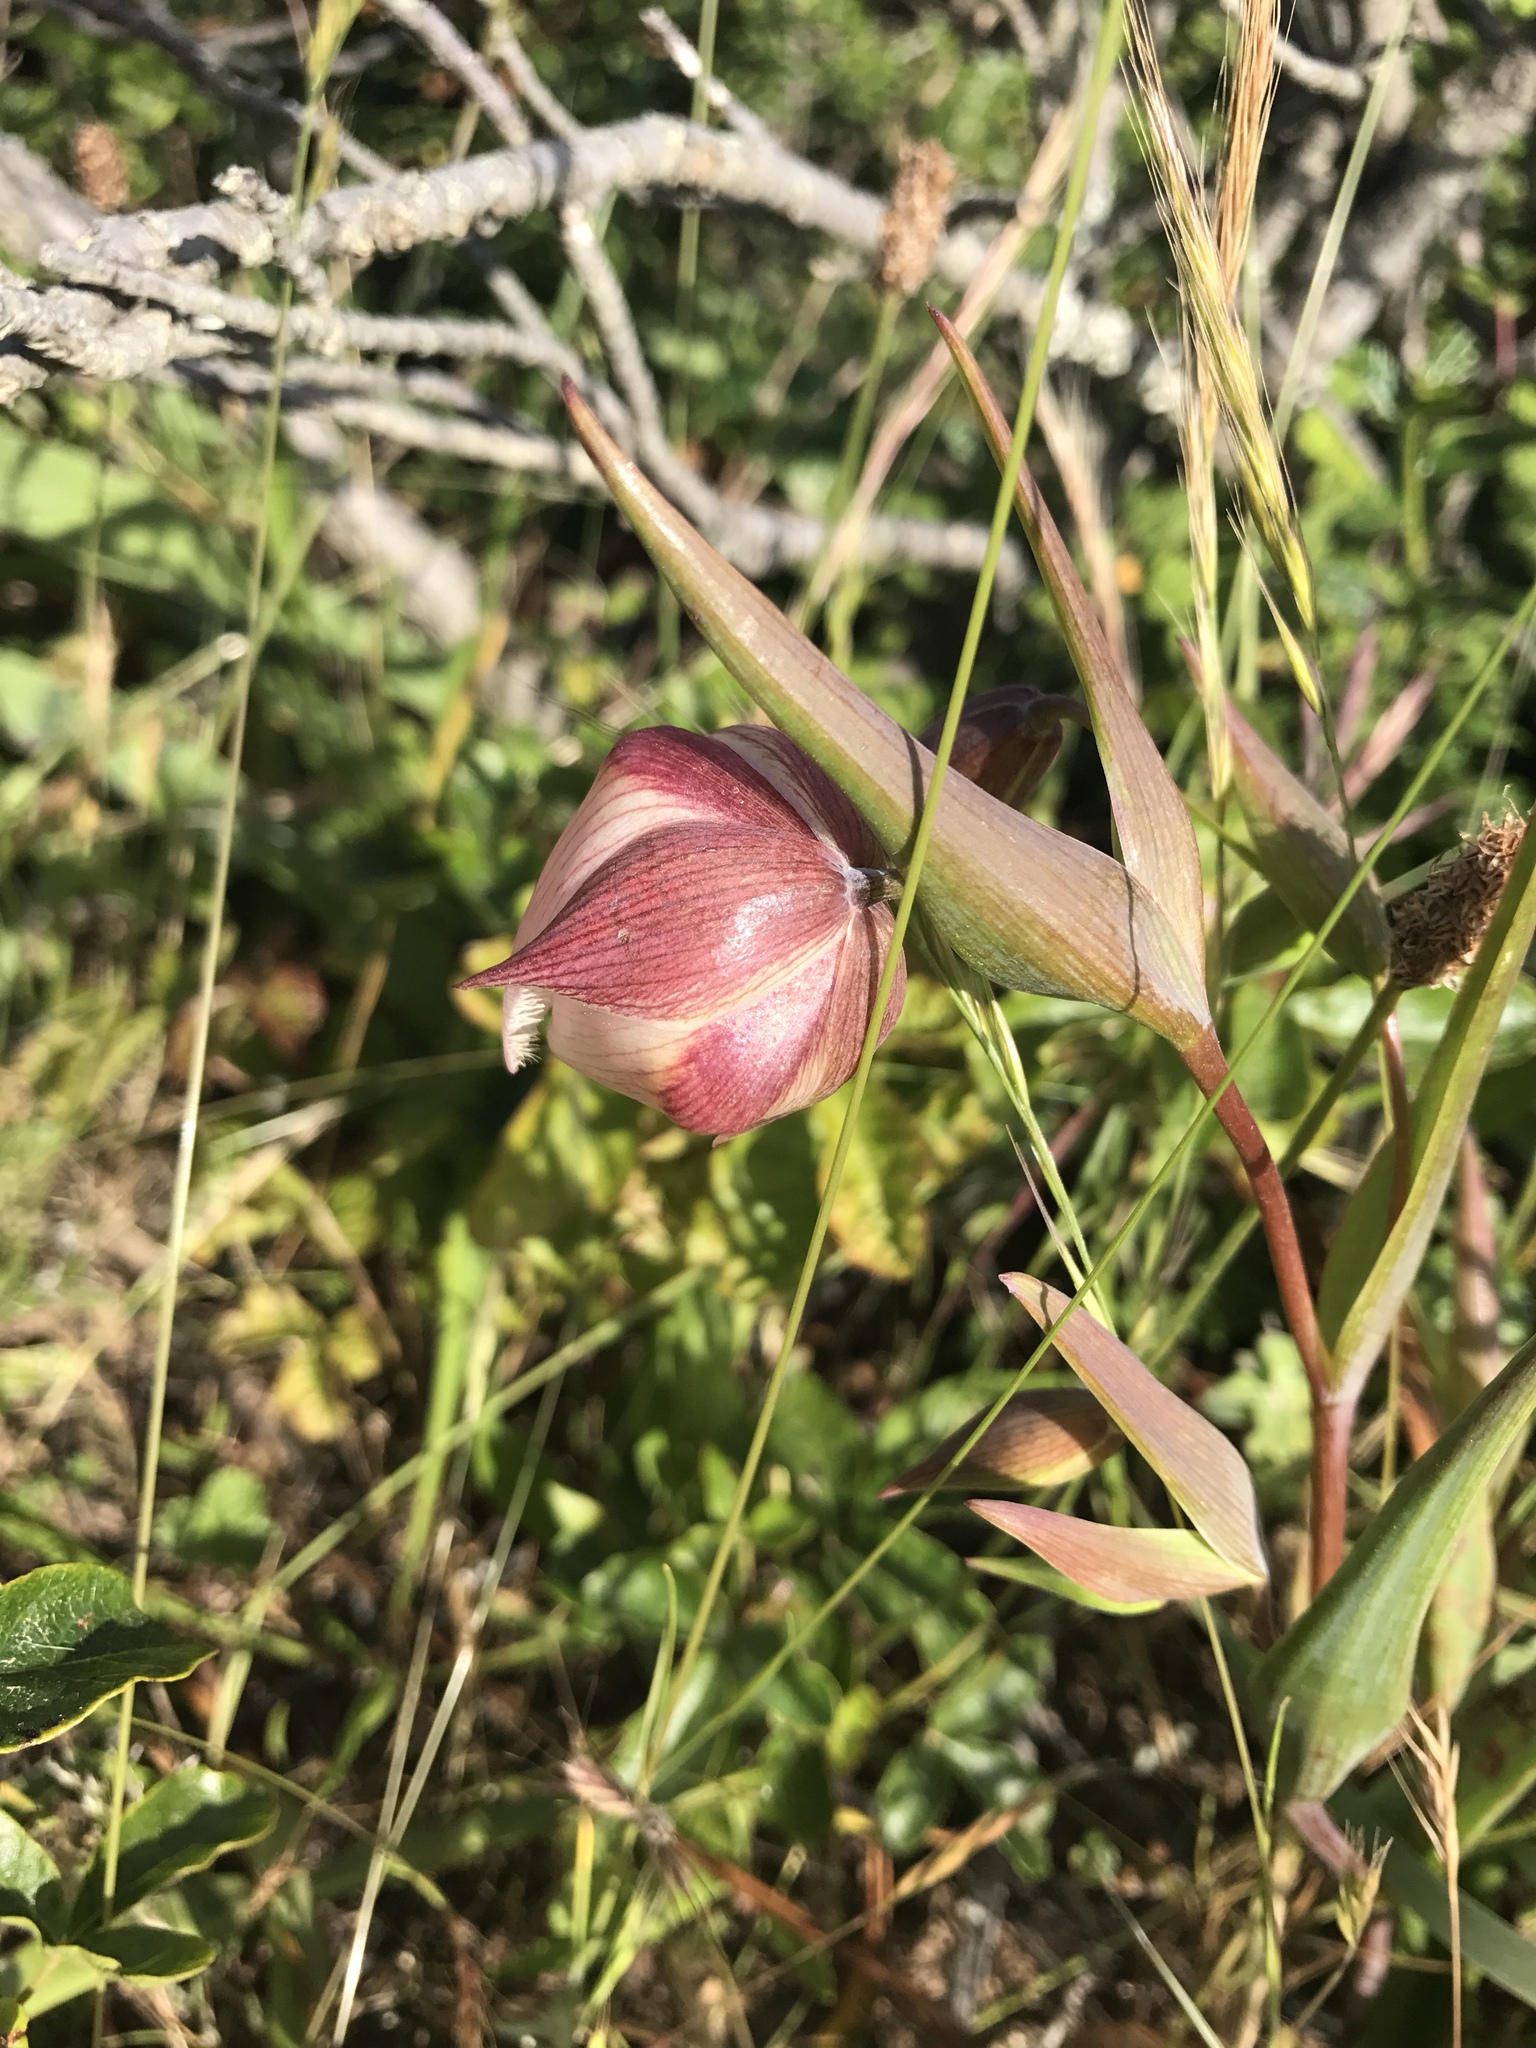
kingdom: Plantae
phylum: Tracheophyta
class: Liliopsida
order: Liliales
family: Liliaceae
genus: Calochortus
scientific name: Calochortus albus
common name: Fairy-lantern
